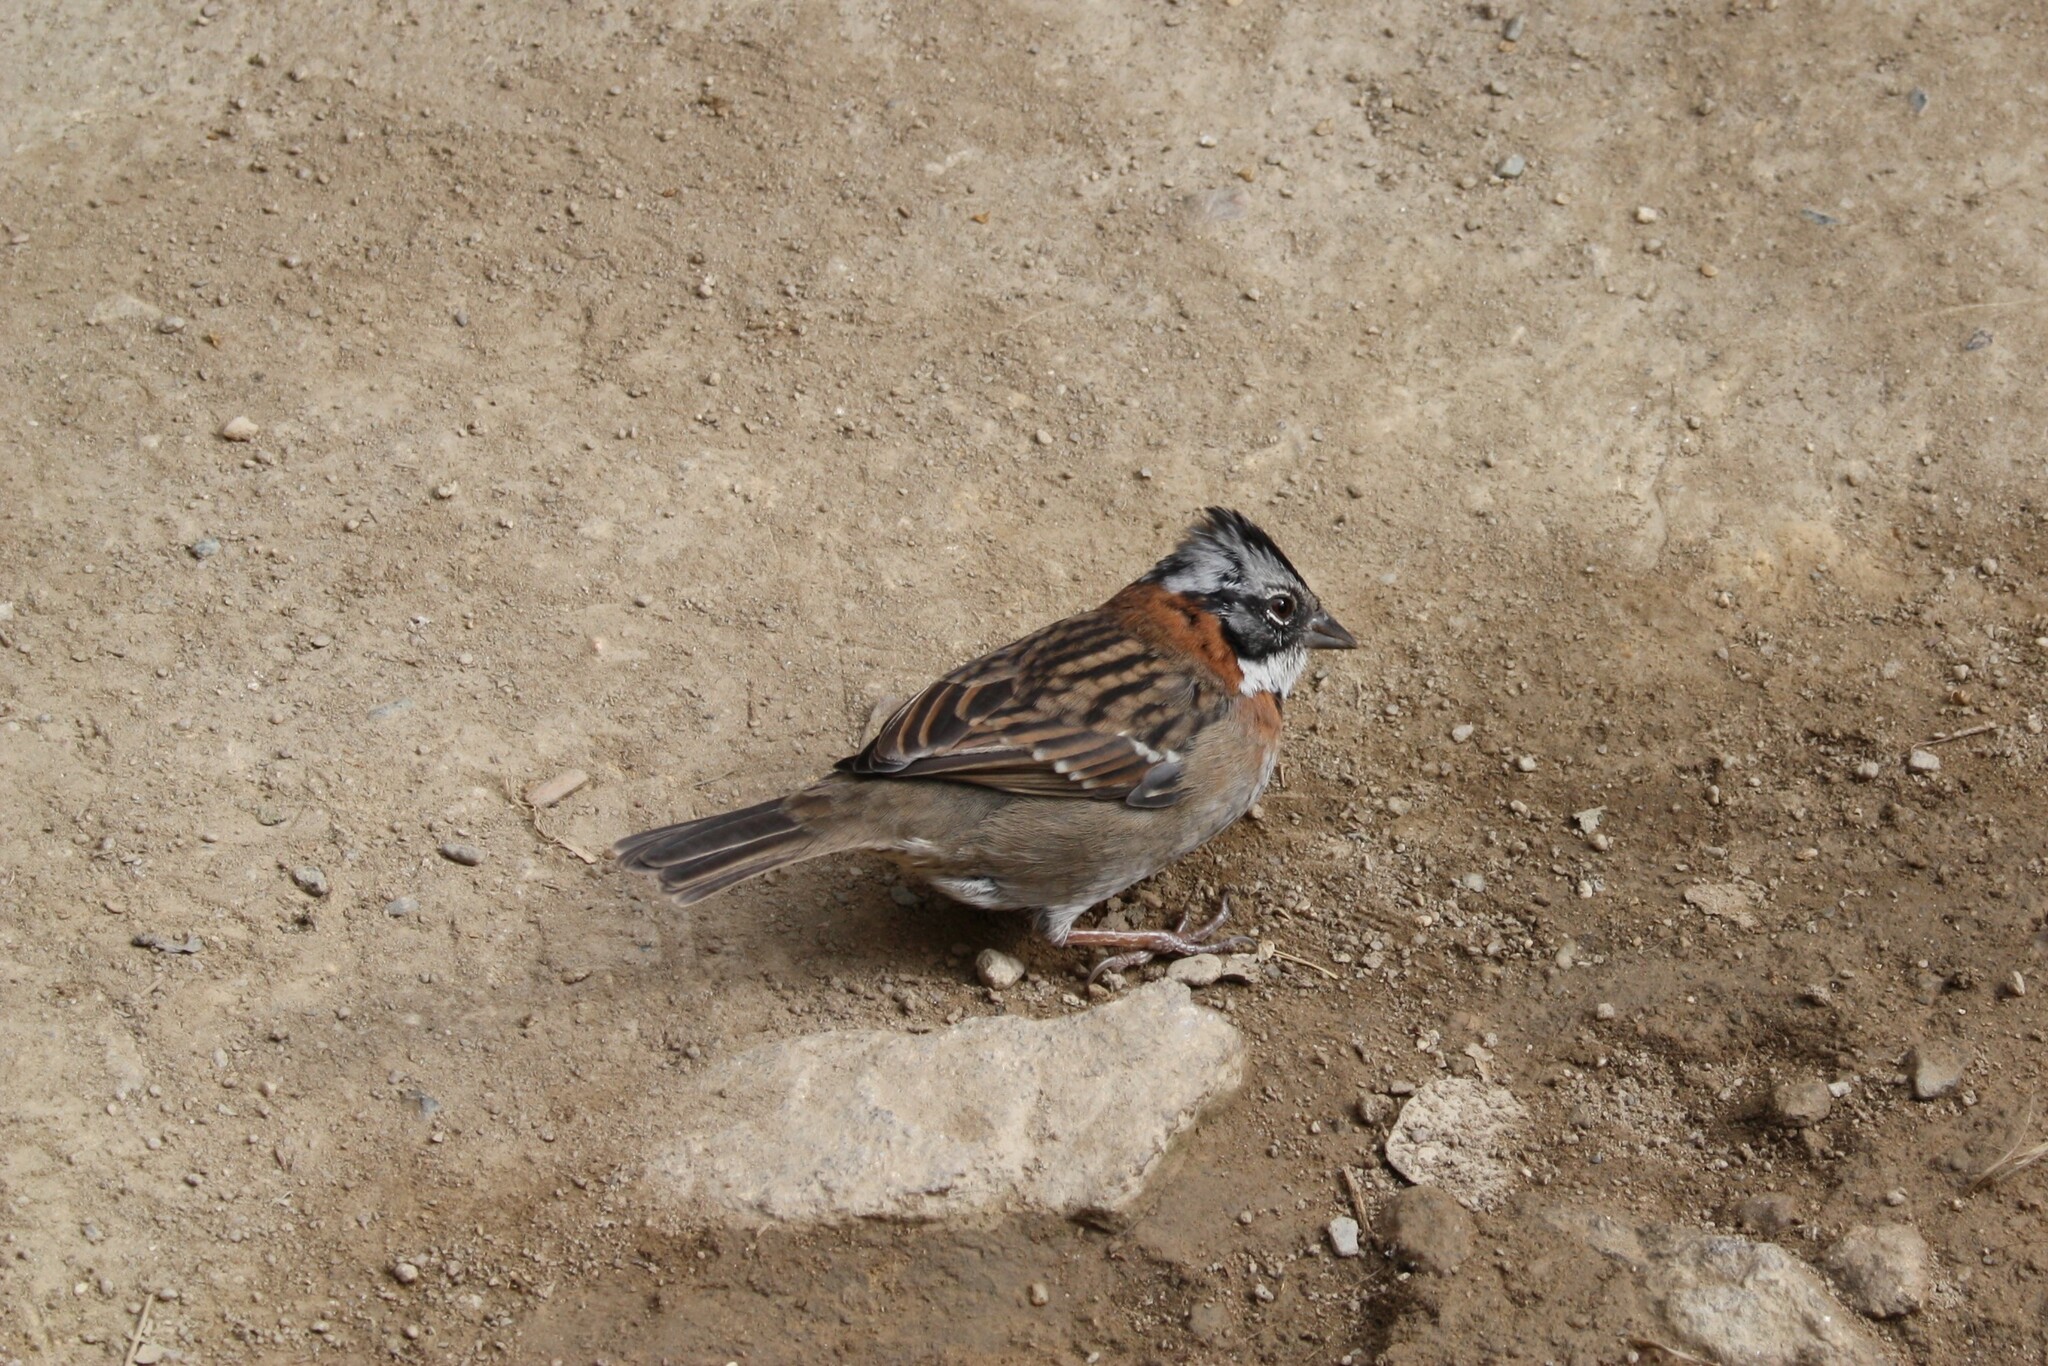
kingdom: Animalia
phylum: Chordata
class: Aves
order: Passeriformes
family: Passerellidae
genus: Zonotrichia
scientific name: Zonotrichia capensis
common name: Rufous-collared sparrow
